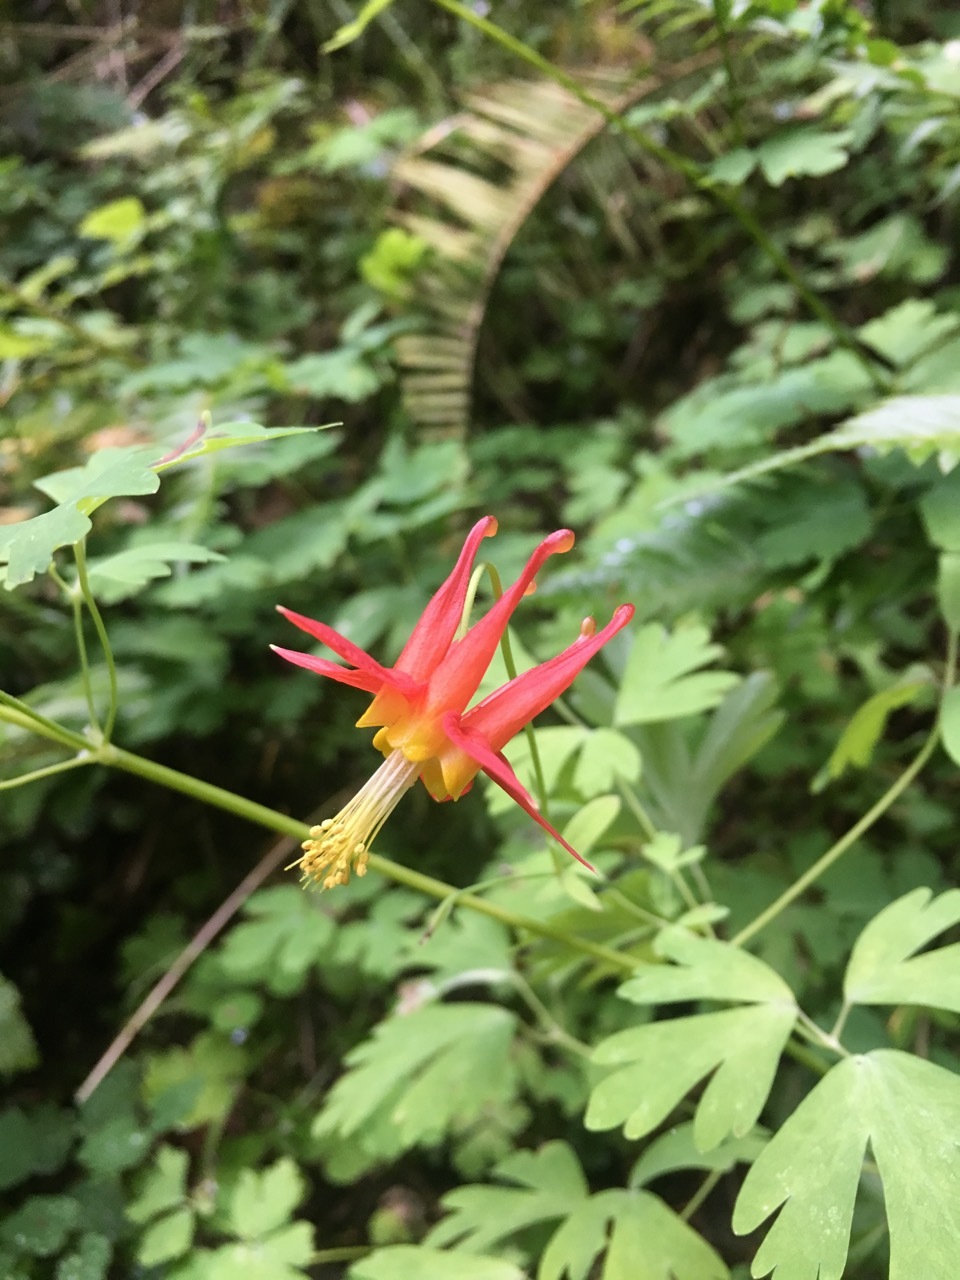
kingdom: Plantae
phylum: Tracheophyta
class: Magnoliopsida
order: Ranunculales
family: Ranunculaceae
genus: Aquilegia
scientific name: Aquilegia formosa
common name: Sitka columbine
